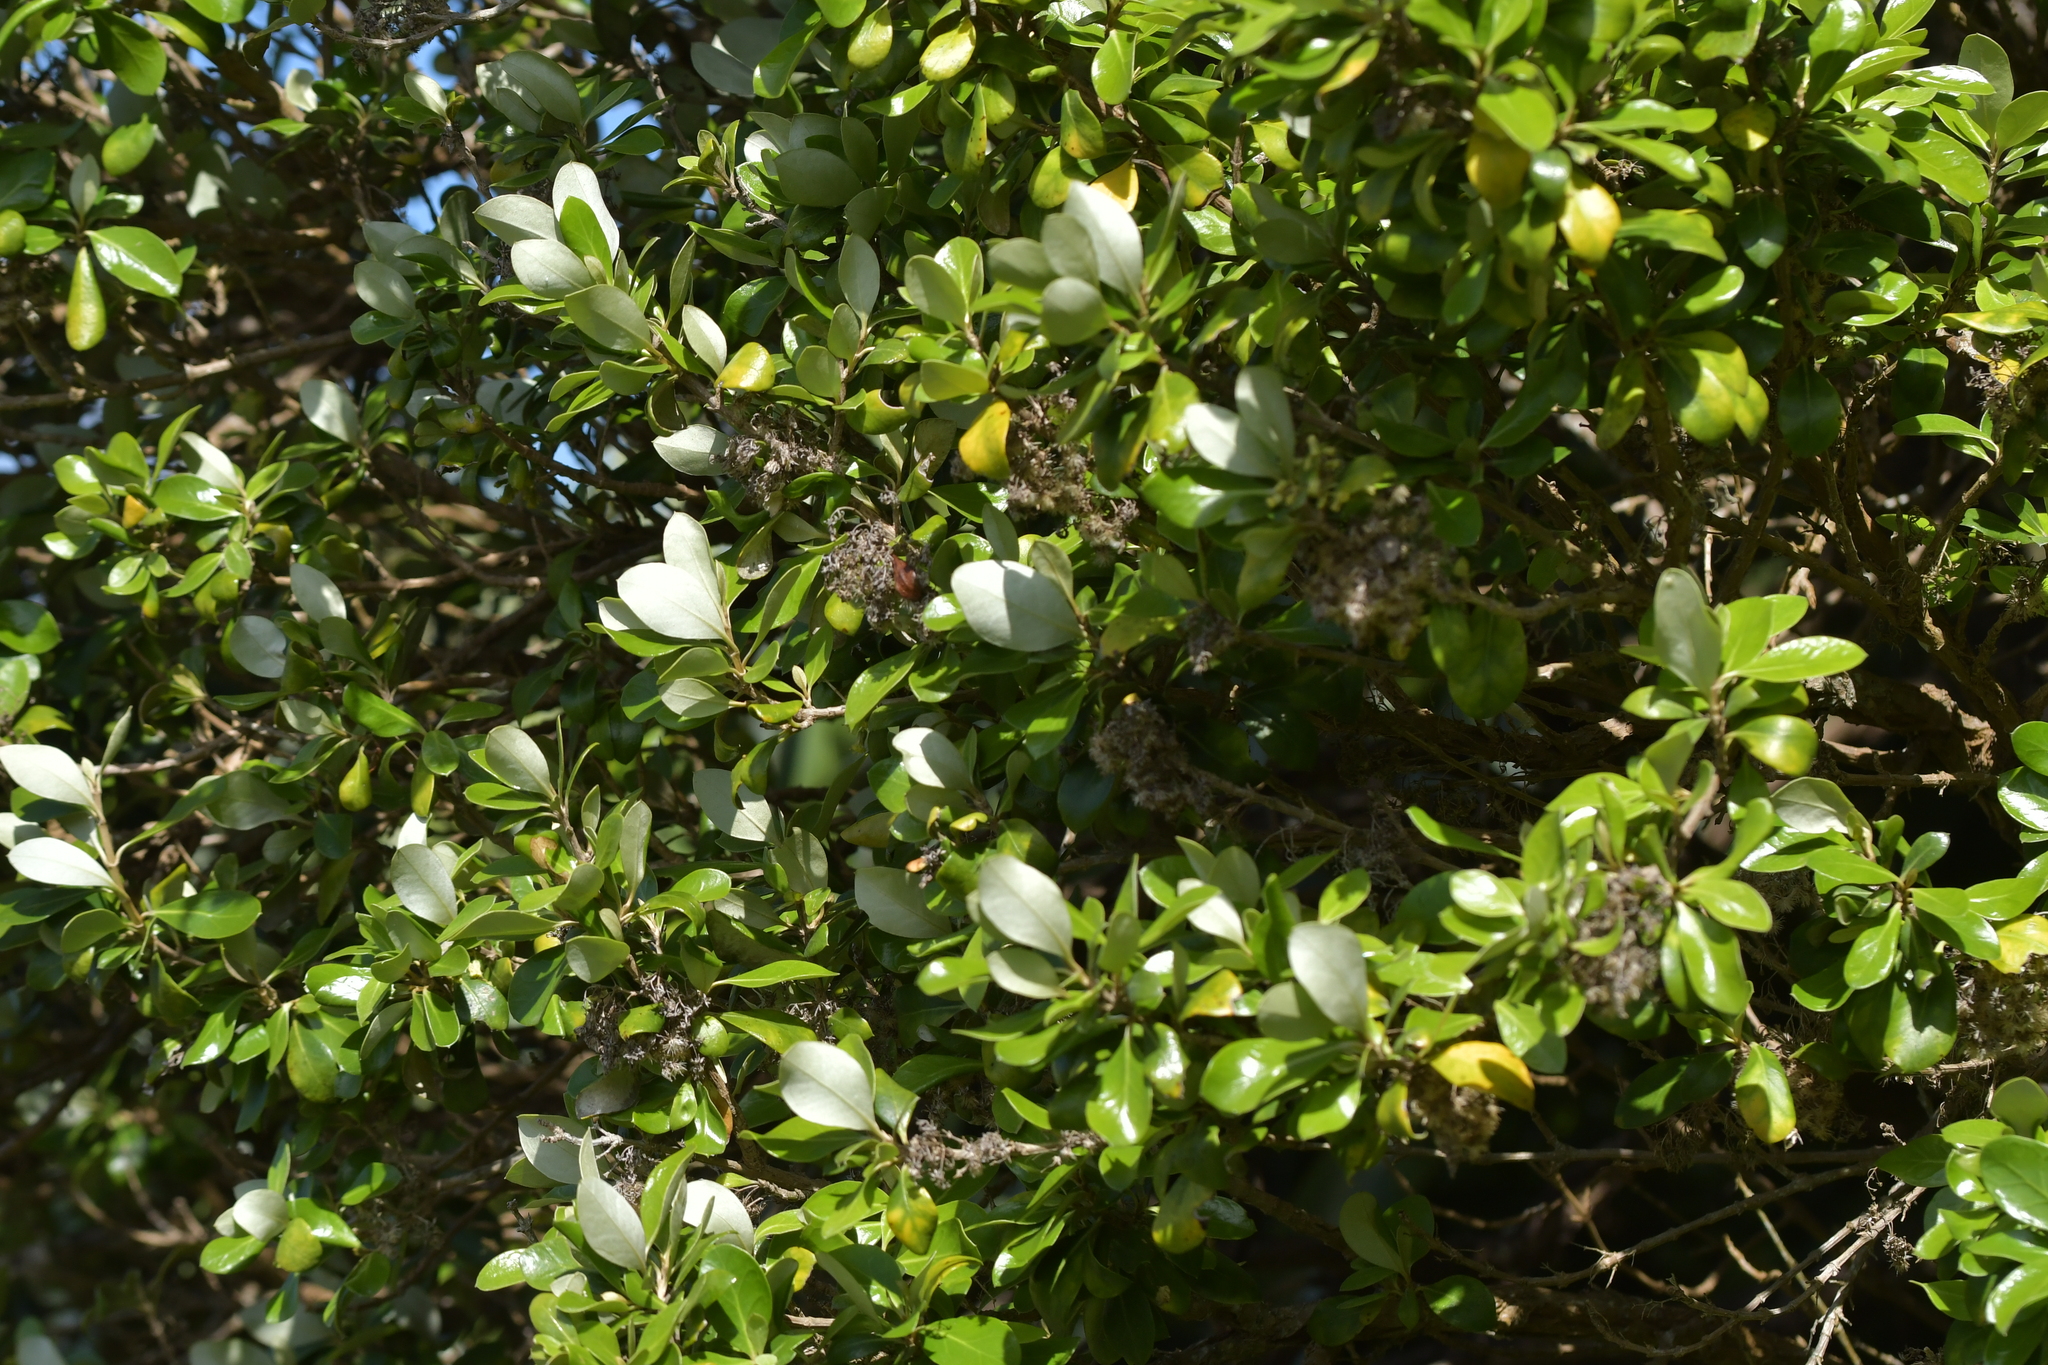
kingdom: Plantae
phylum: Tracheophyta
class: Magnoliopsida
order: Asterales
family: Asteraceae
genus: Olearia
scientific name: Olearia traversiorum
